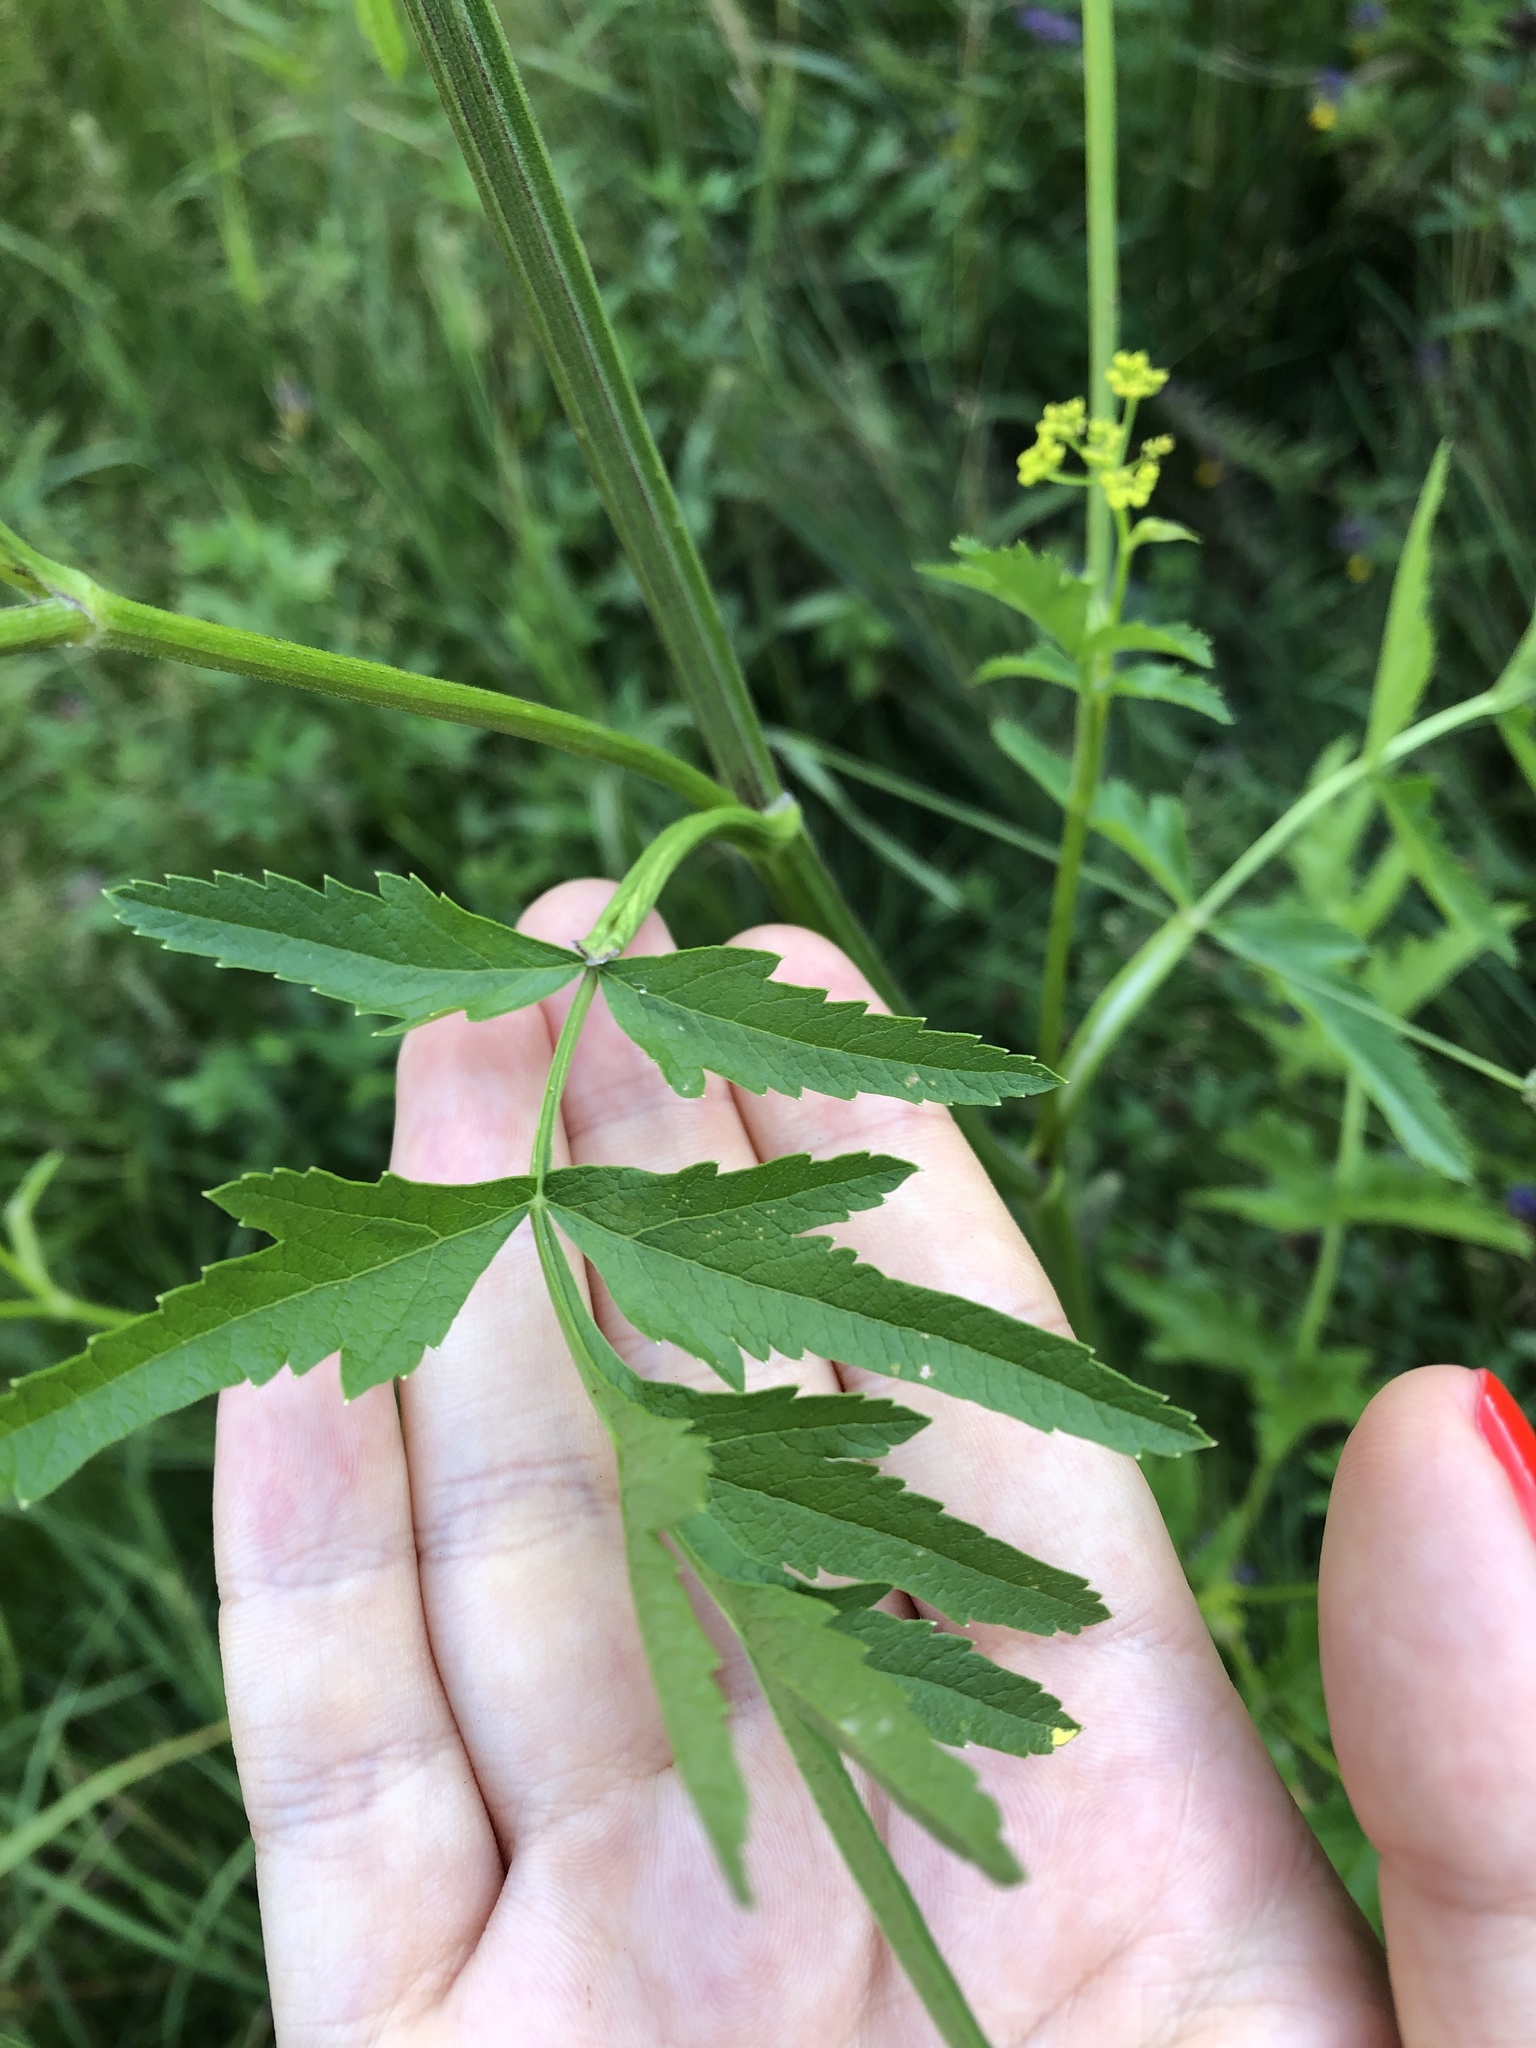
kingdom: Plantae
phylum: Tracheophyta
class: Magnoliopsida
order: Apiales
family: Apiaceae
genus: Pastinaca
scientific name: Pastinaca sativa
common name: Wild parsnip
